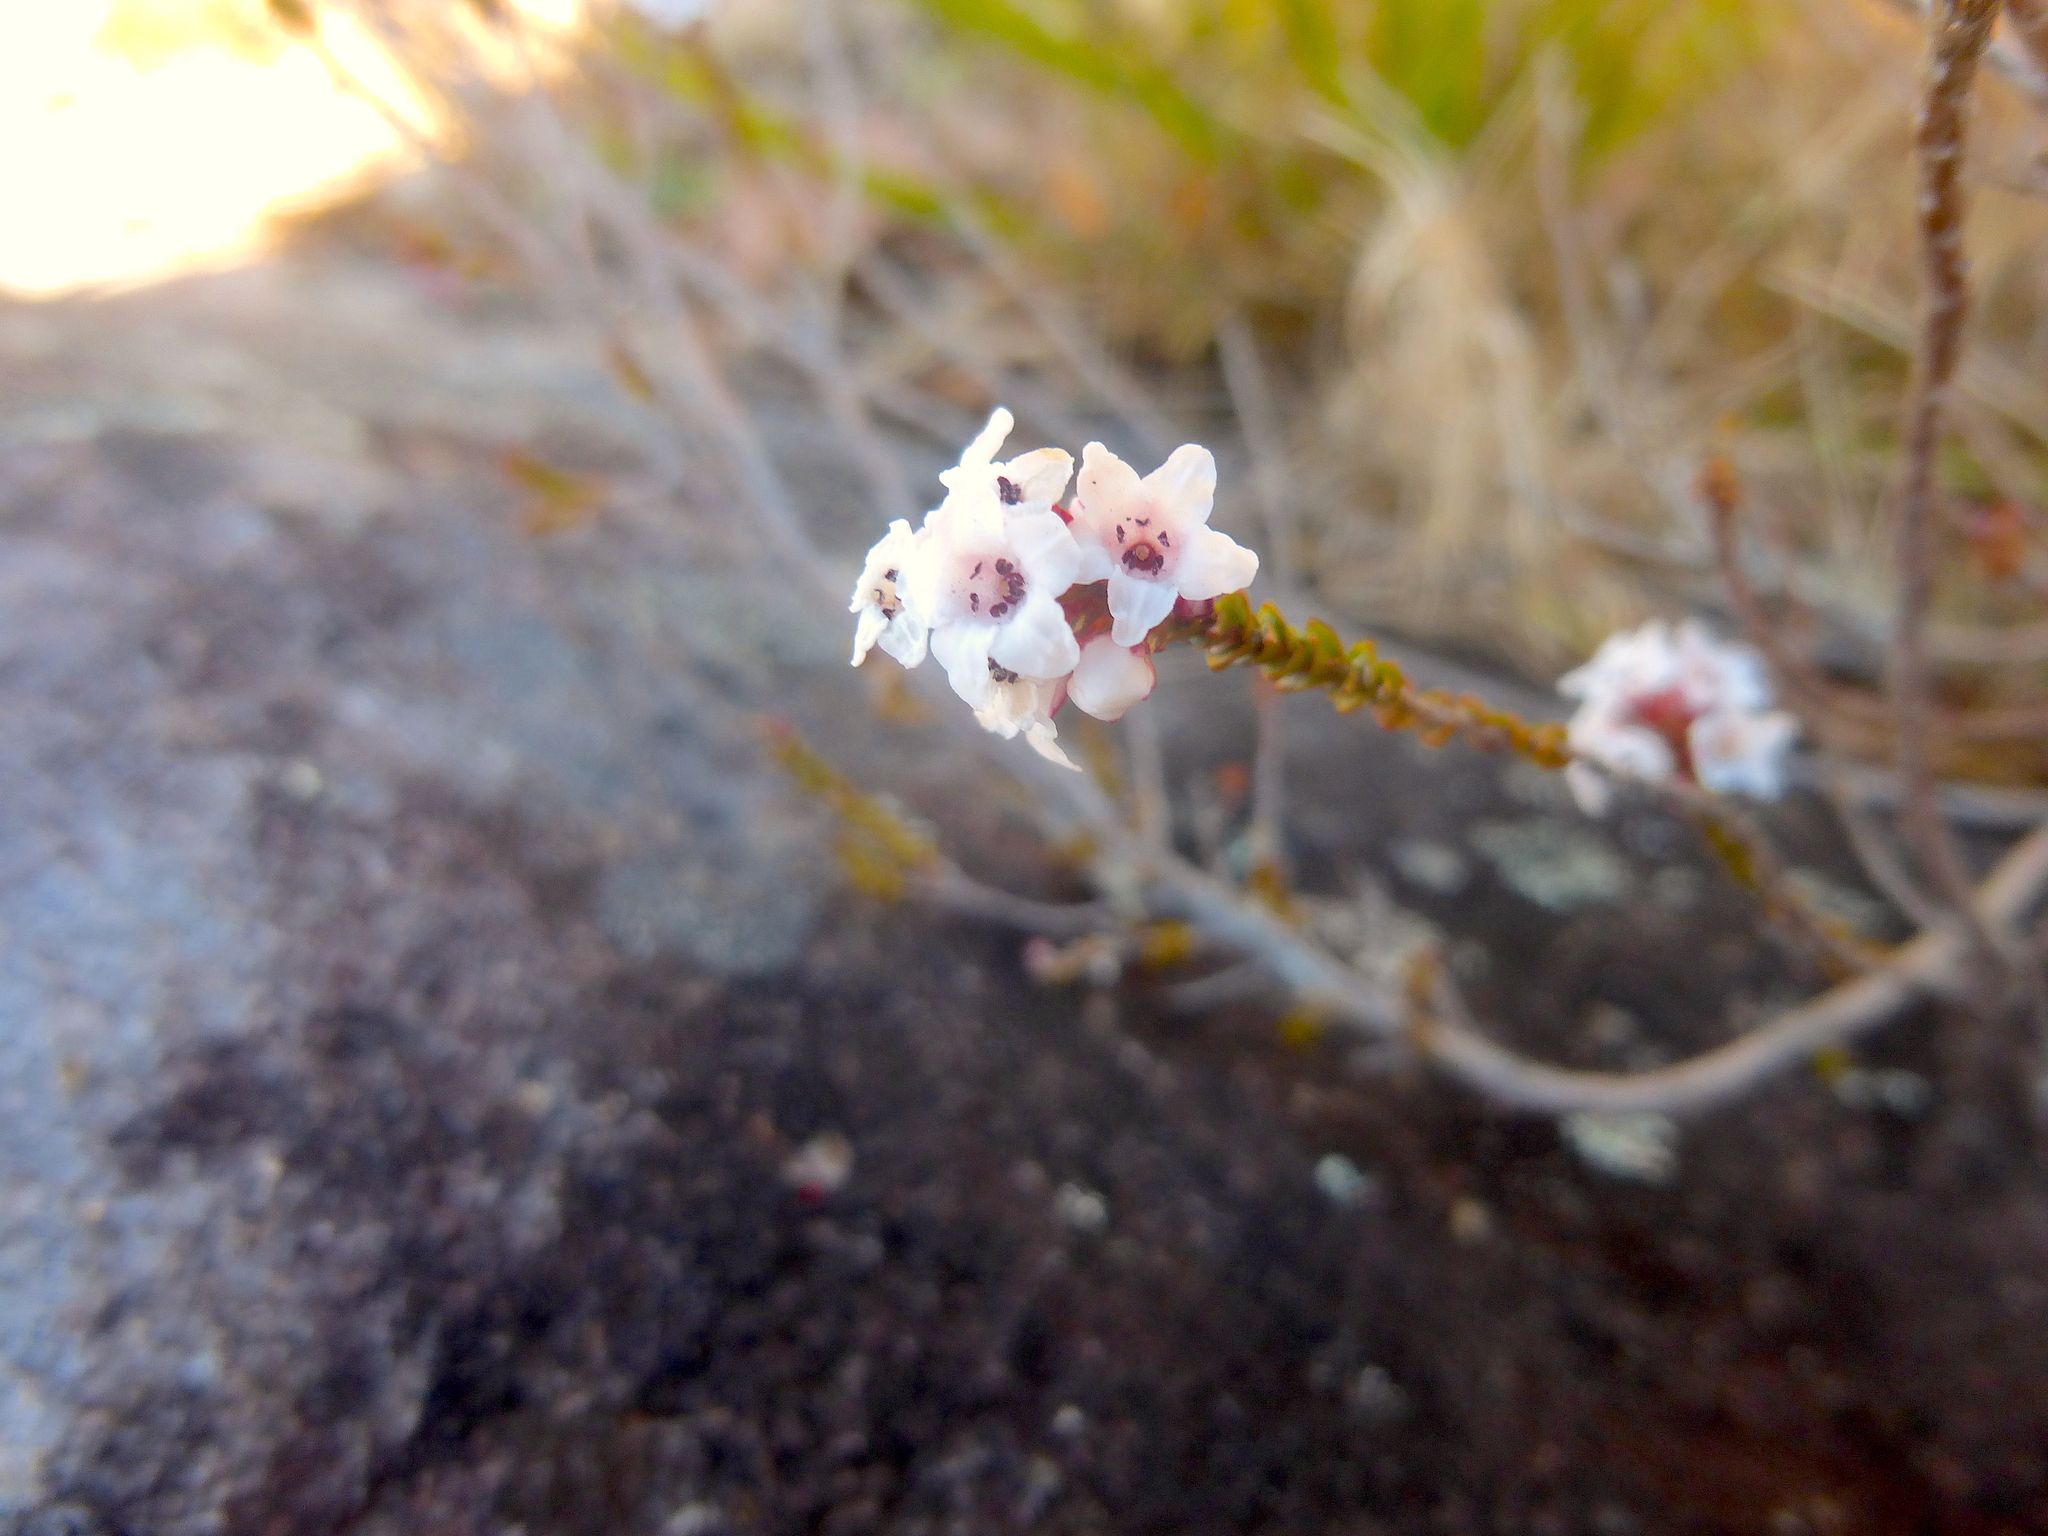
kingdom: Plantae
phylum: Tracheophyta
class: Magnoliopsida
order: Ericales
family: Ericaceae
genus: Epacris
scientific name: Epacris microphylla
